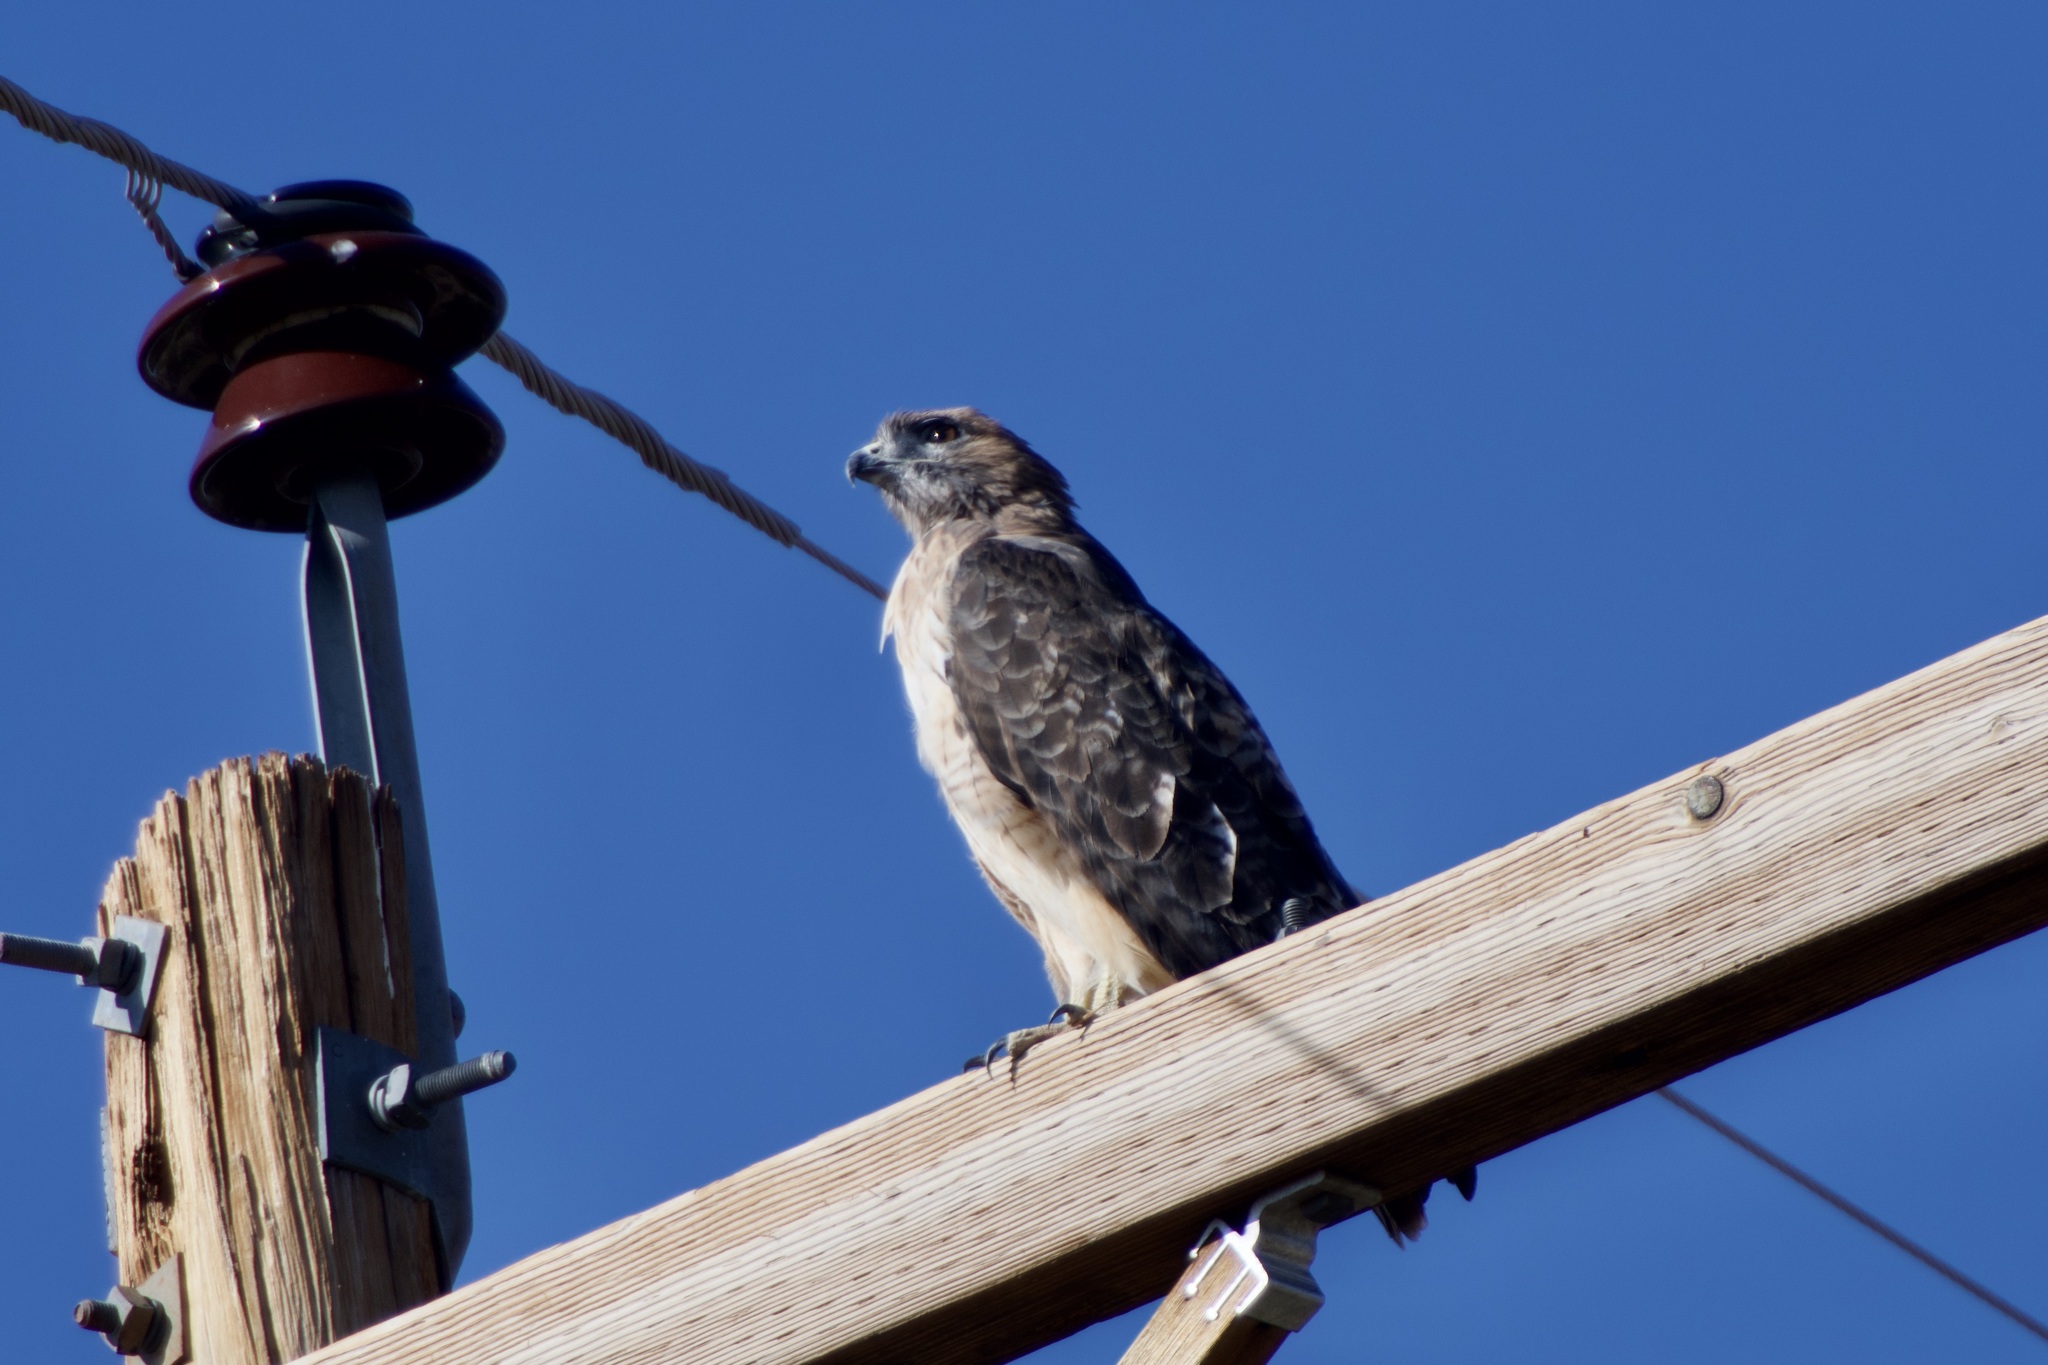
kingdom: Animalia
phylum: Chordata
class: Aves
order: Accipitriformes
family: Accipitridae
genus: Buteo
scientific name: Buteo jamaicensis
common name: Red-tailed hawk
